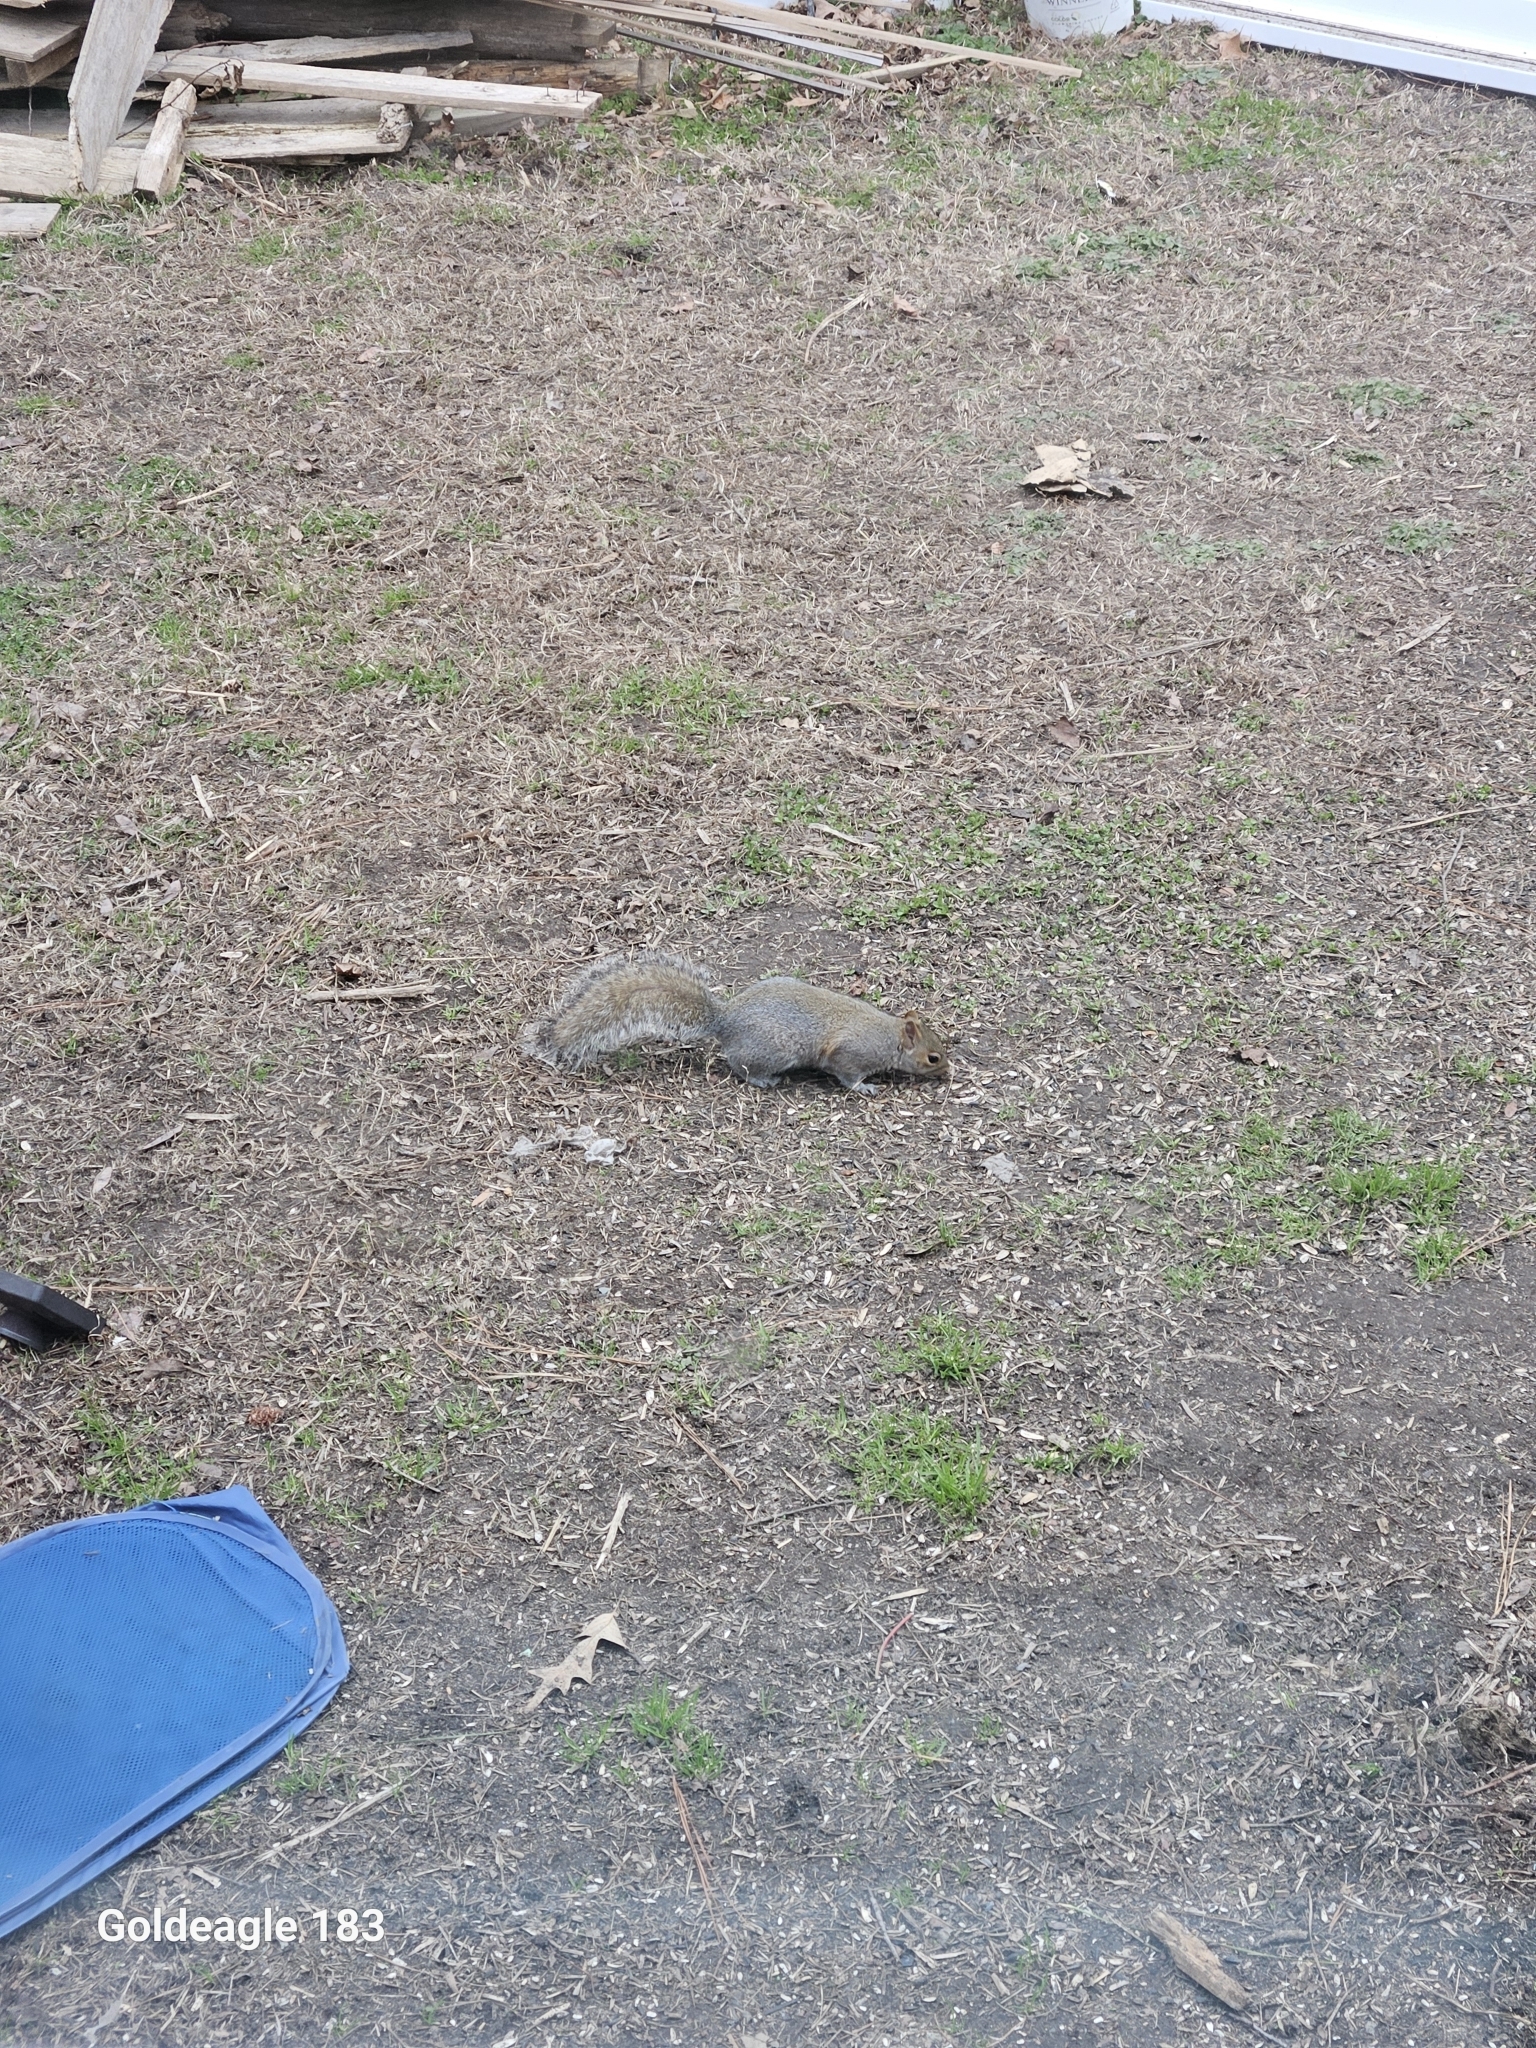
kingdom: Animalia
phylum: Chordata
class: Mammalia
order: Rodentia
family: Sciuridae
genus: Sciurus
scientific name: Sciurus carolinensis
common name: Eastern gray squirrel
